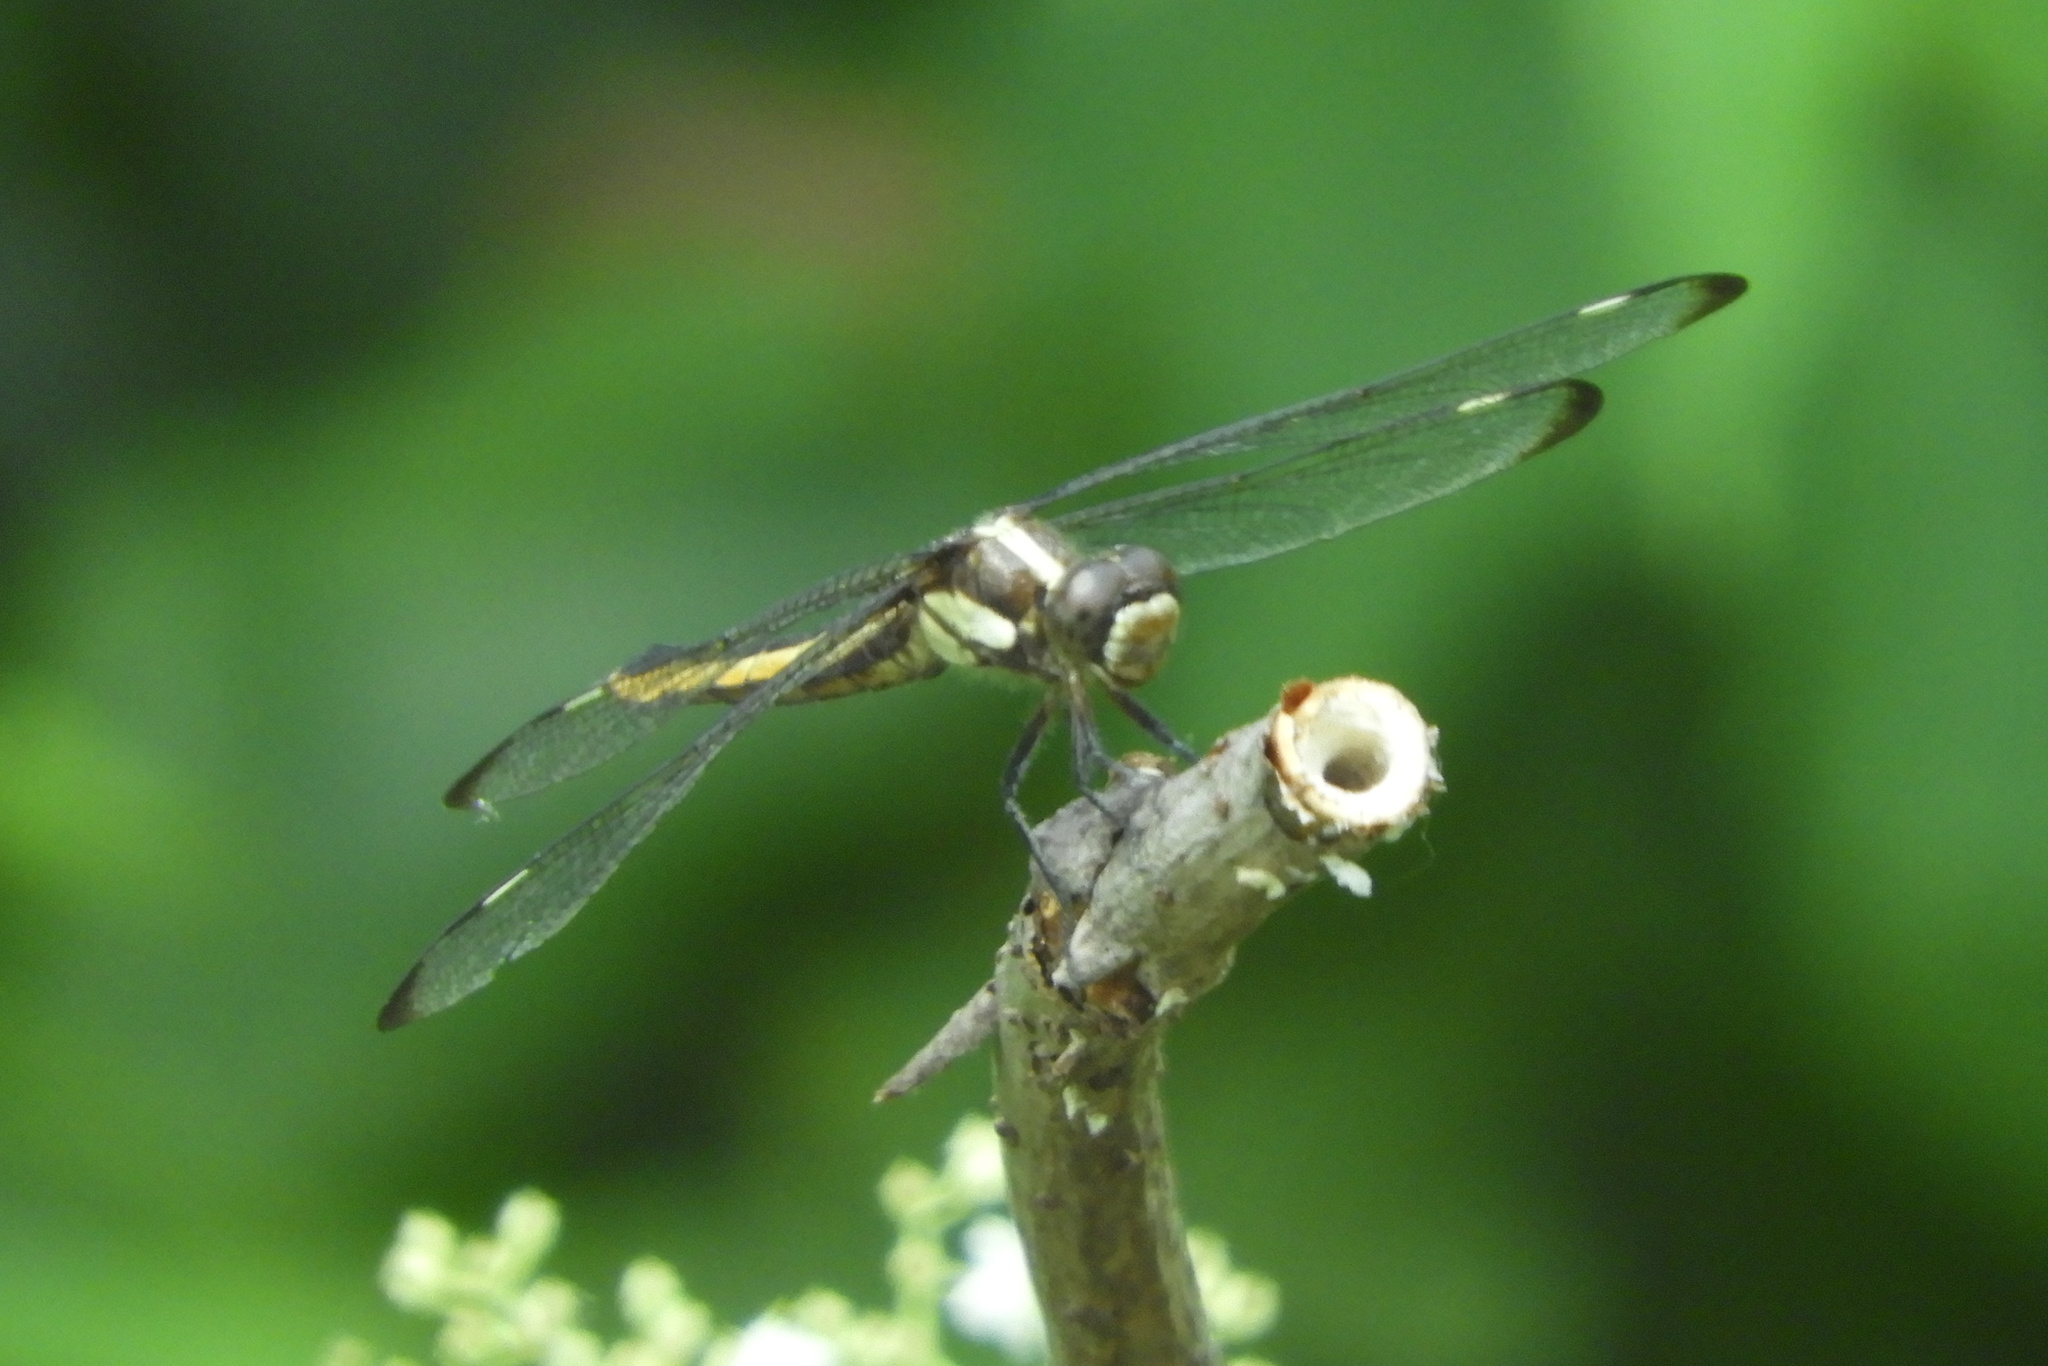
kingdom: Animalia
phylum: Arthropoda
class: Insecta
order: Odonata
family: Libellulidae
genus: Libellula
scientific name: Libellula cyanea
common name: Spangled skimmer
